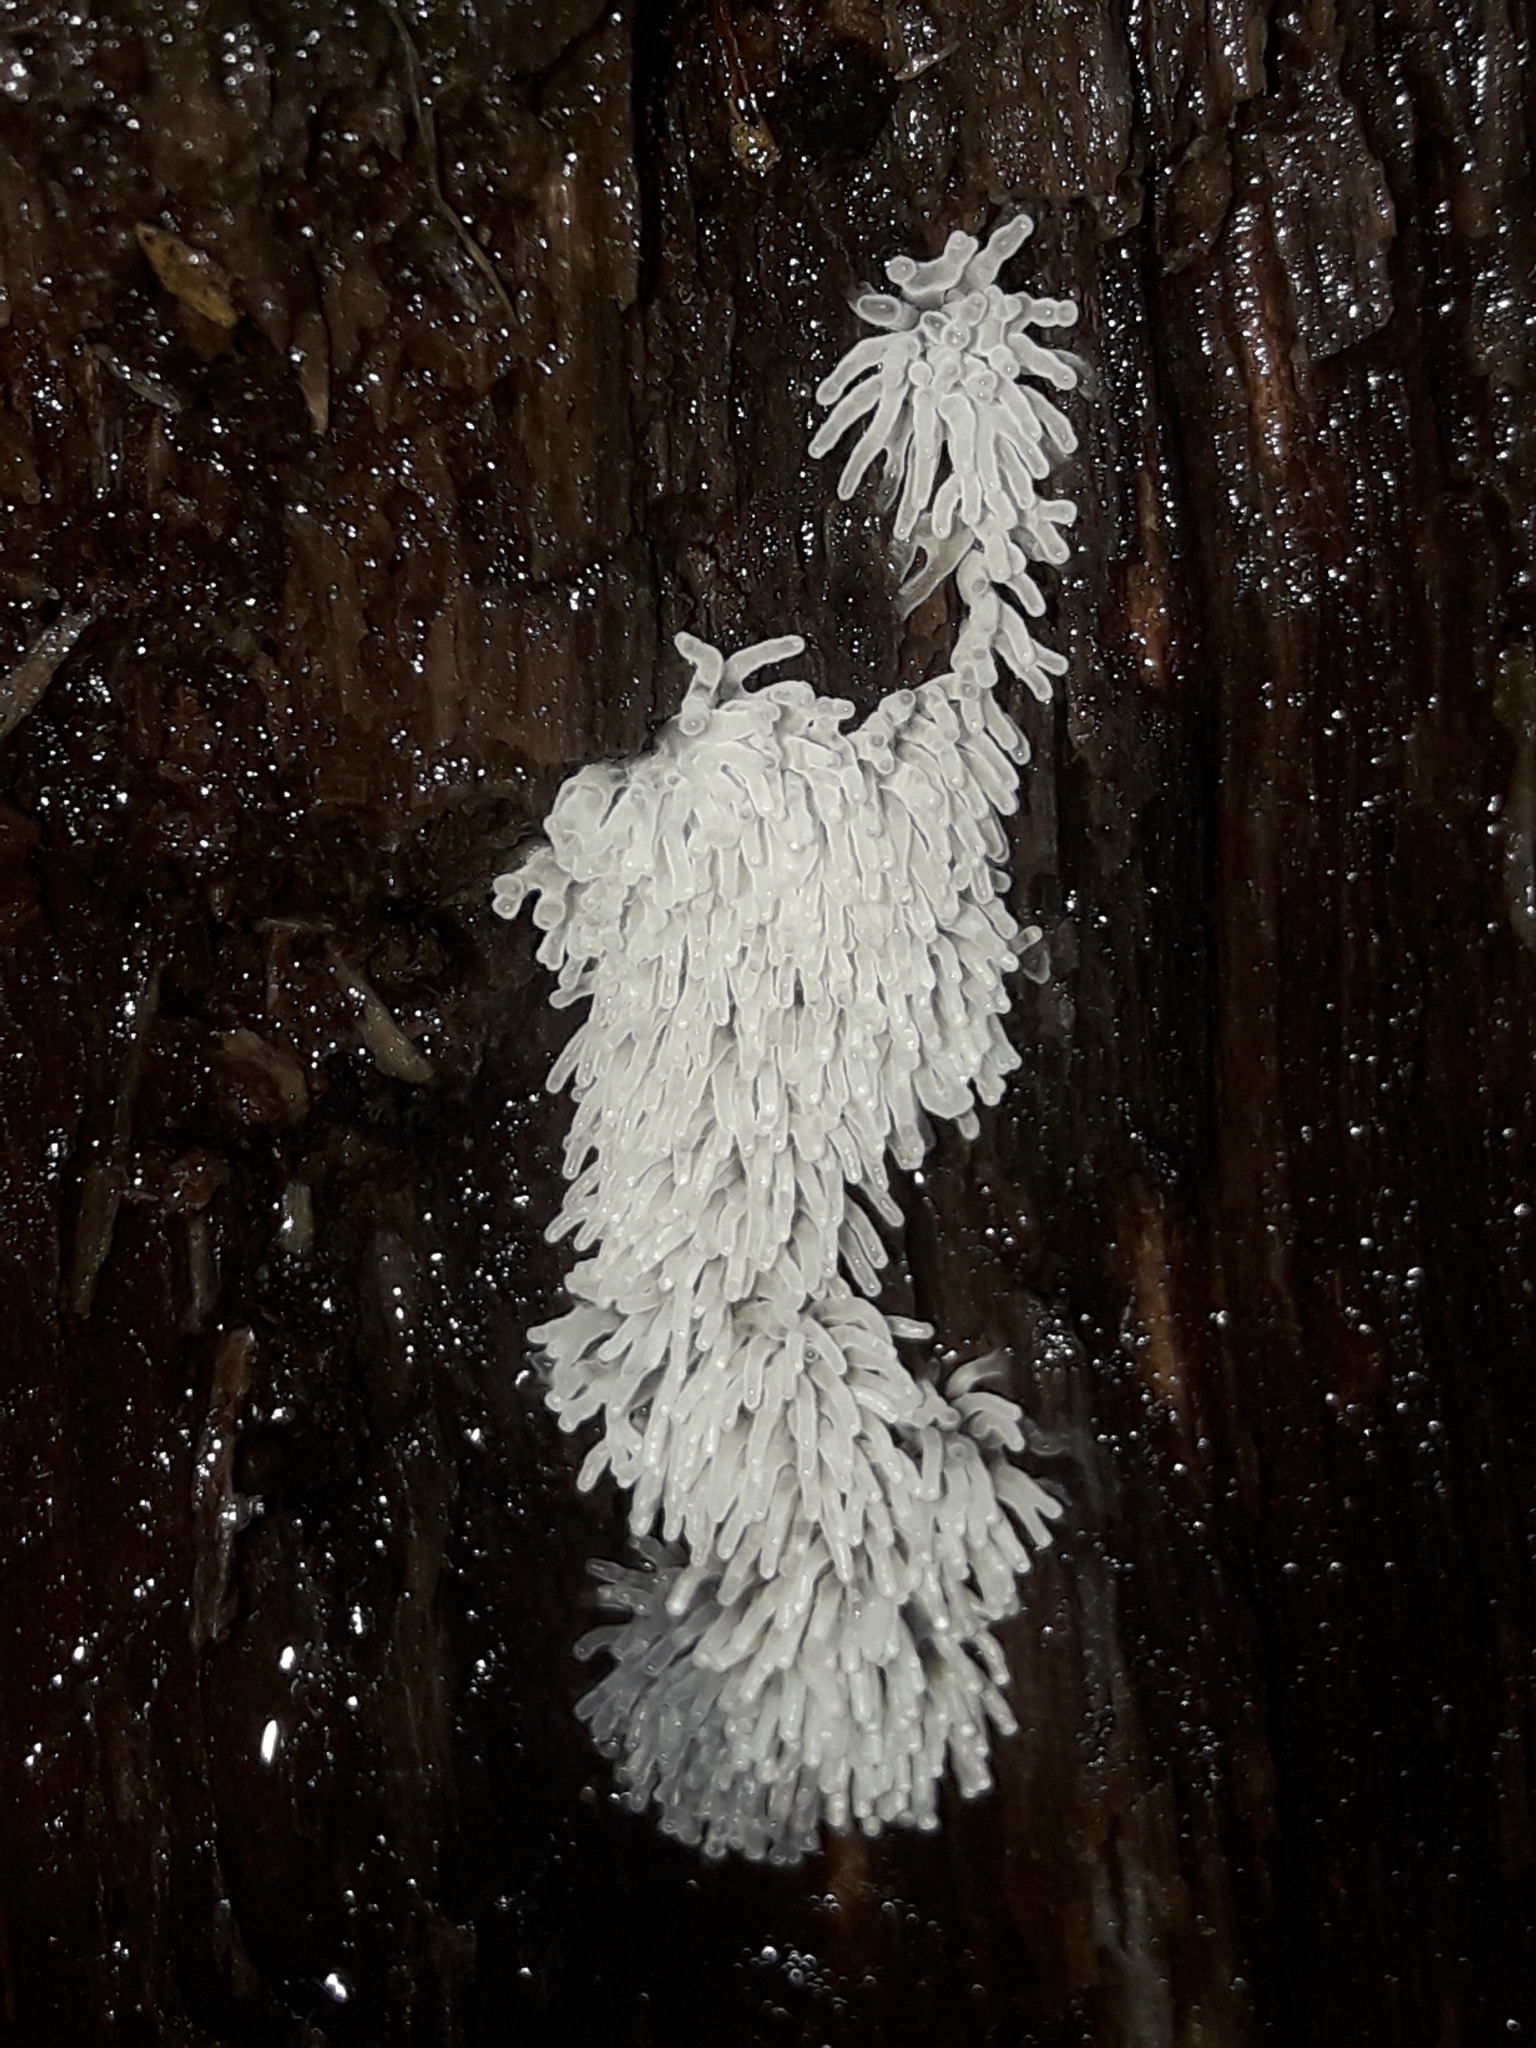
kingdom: Protozoa
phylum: Mycetozoa
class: Protosteliomycetes
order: Ceratiomyxales
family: Ceratiomyxaceae
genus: Ceratiomyxa
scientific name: Ceratiomyxa fruticulosa
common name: Honeycomb coral slime mold
